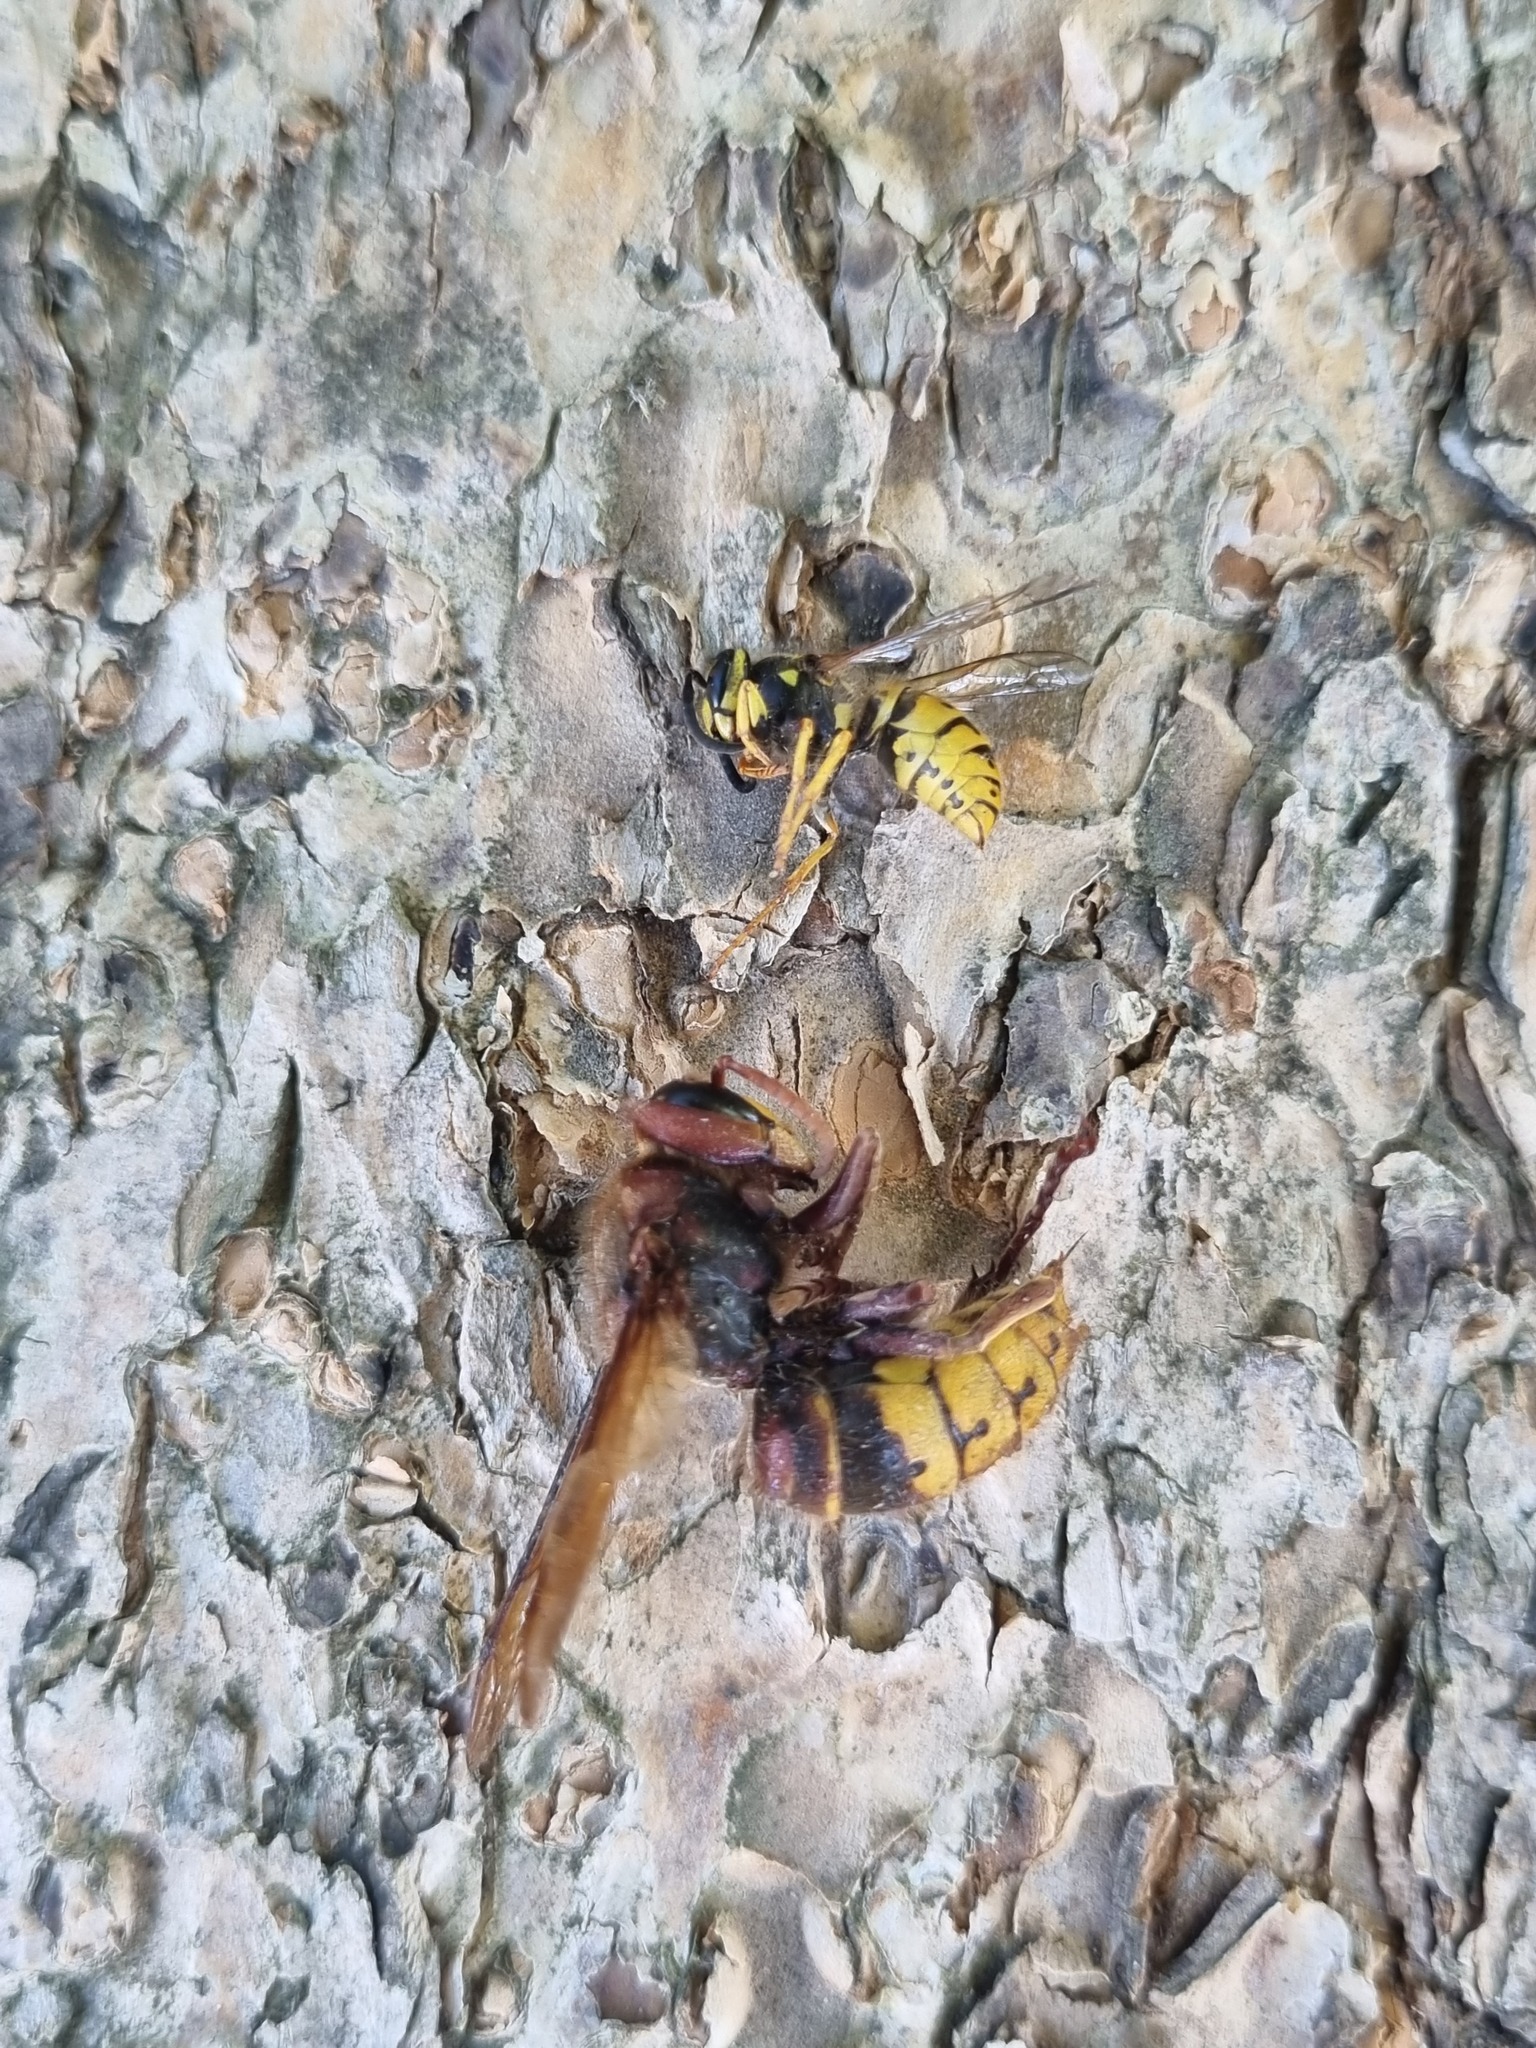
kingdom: Animalia
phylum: Arthropoda
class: Insecta
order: Hymenoptera
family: Vespidae
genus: Vespa
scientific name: Vespa crabro
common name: Hornet
